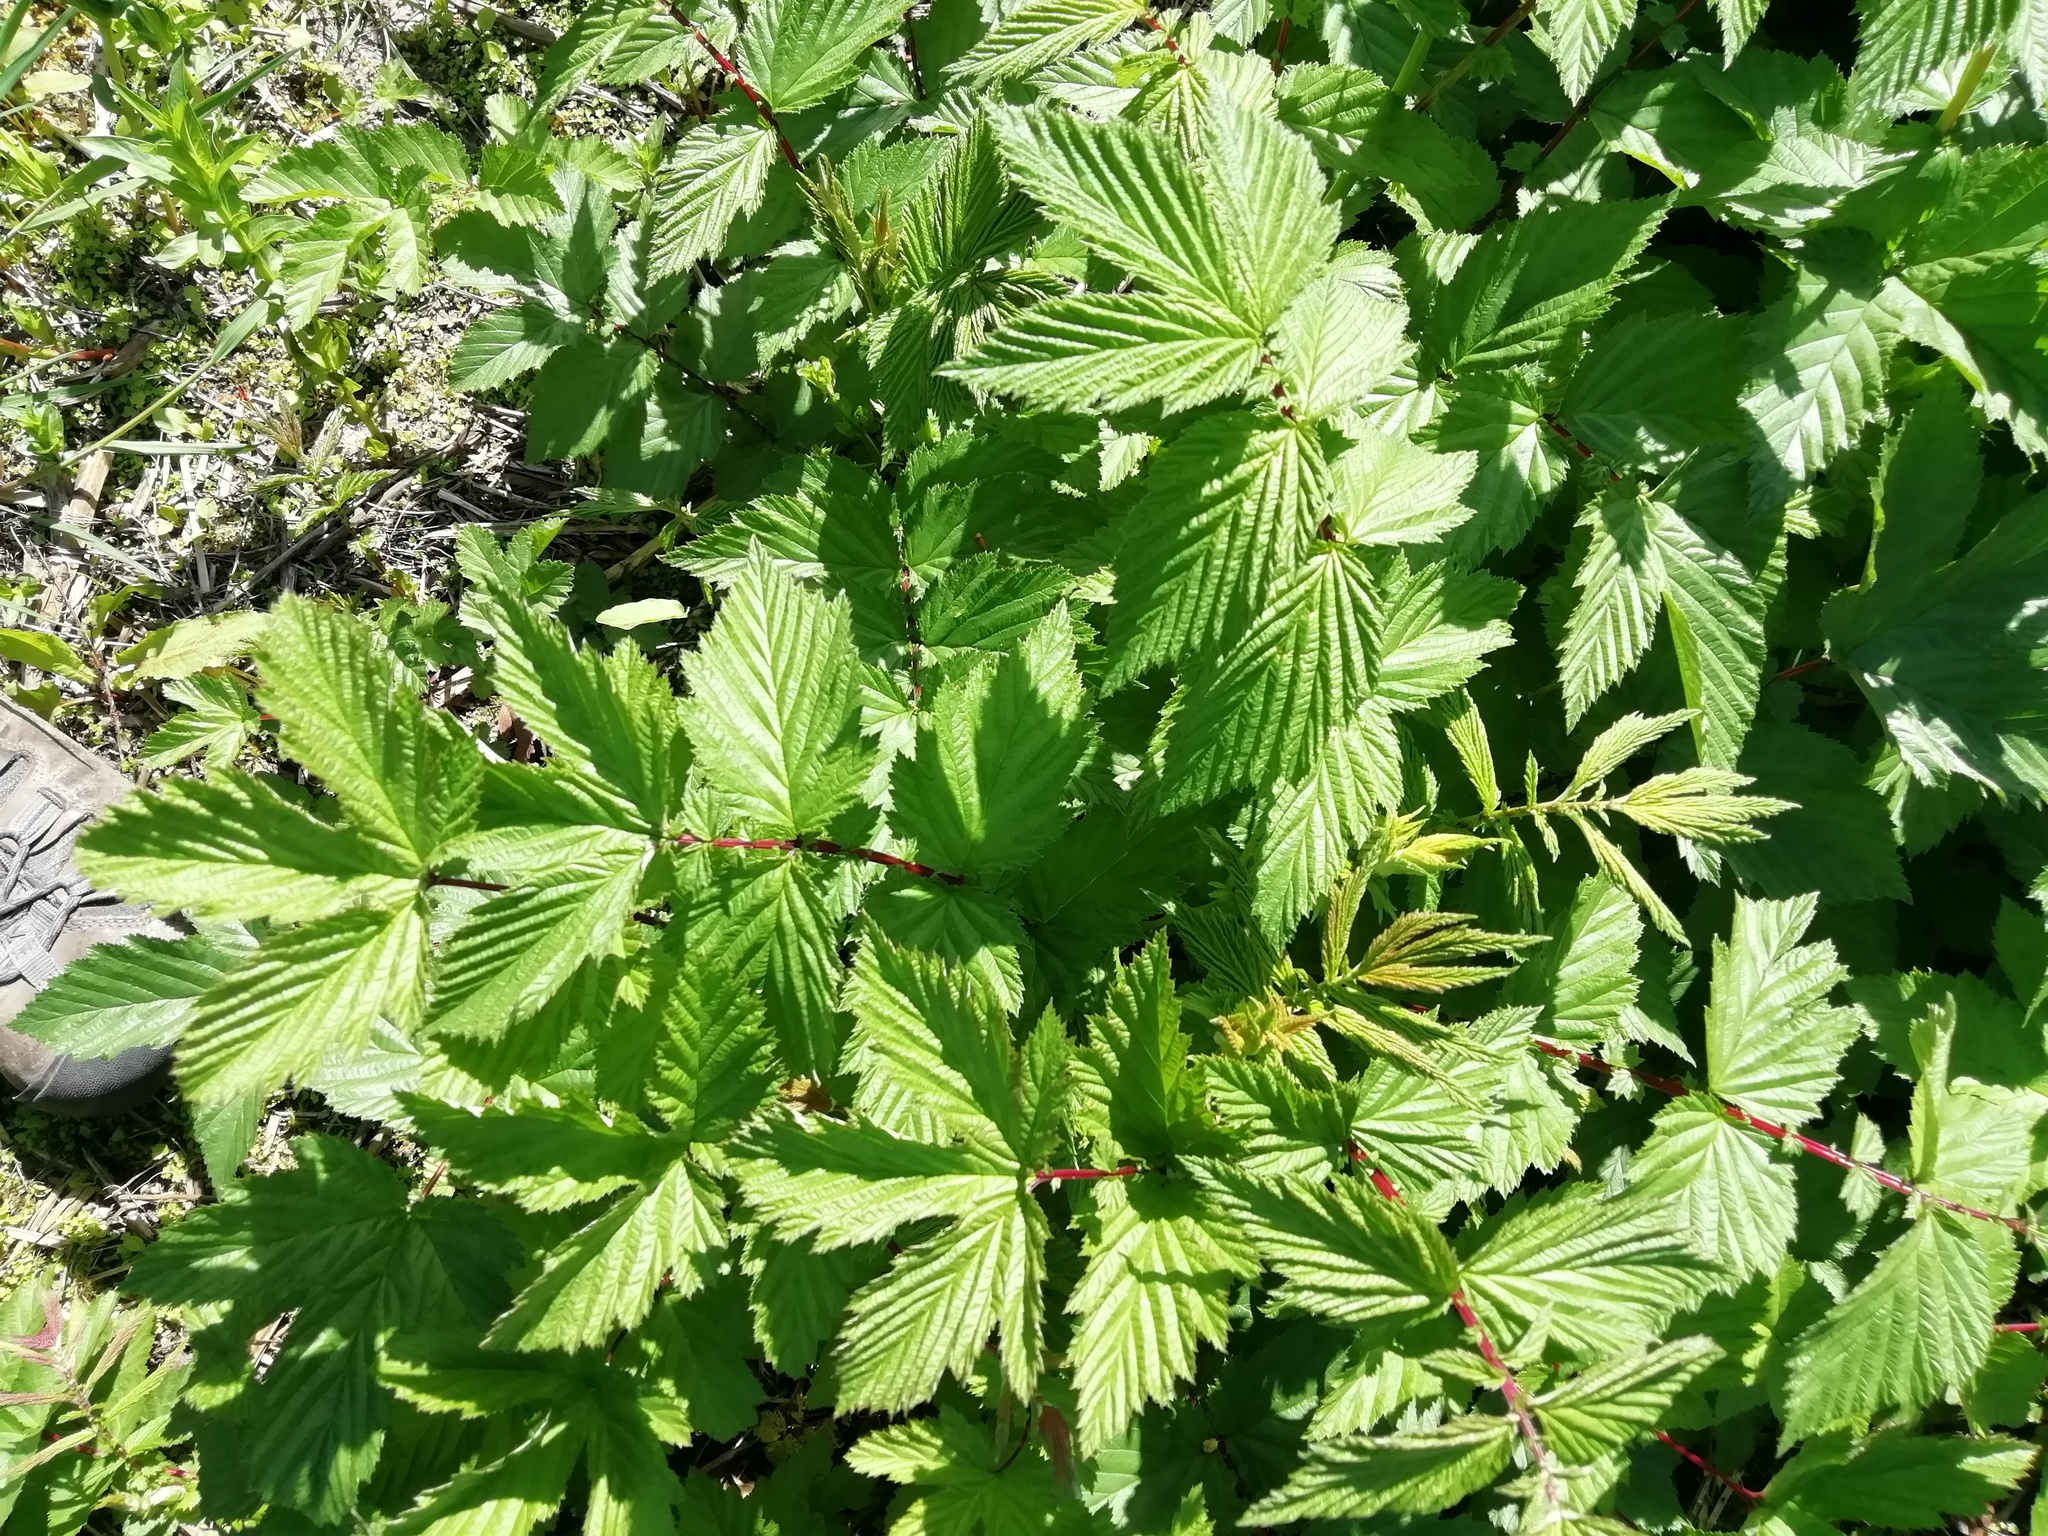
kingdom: Plantae
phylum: Tracheophyta
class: Magnoliopsida
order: Rosales
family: Rosaceae
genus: Filipendula
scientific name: Filipendula ulmaria
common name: Meadowsweet
